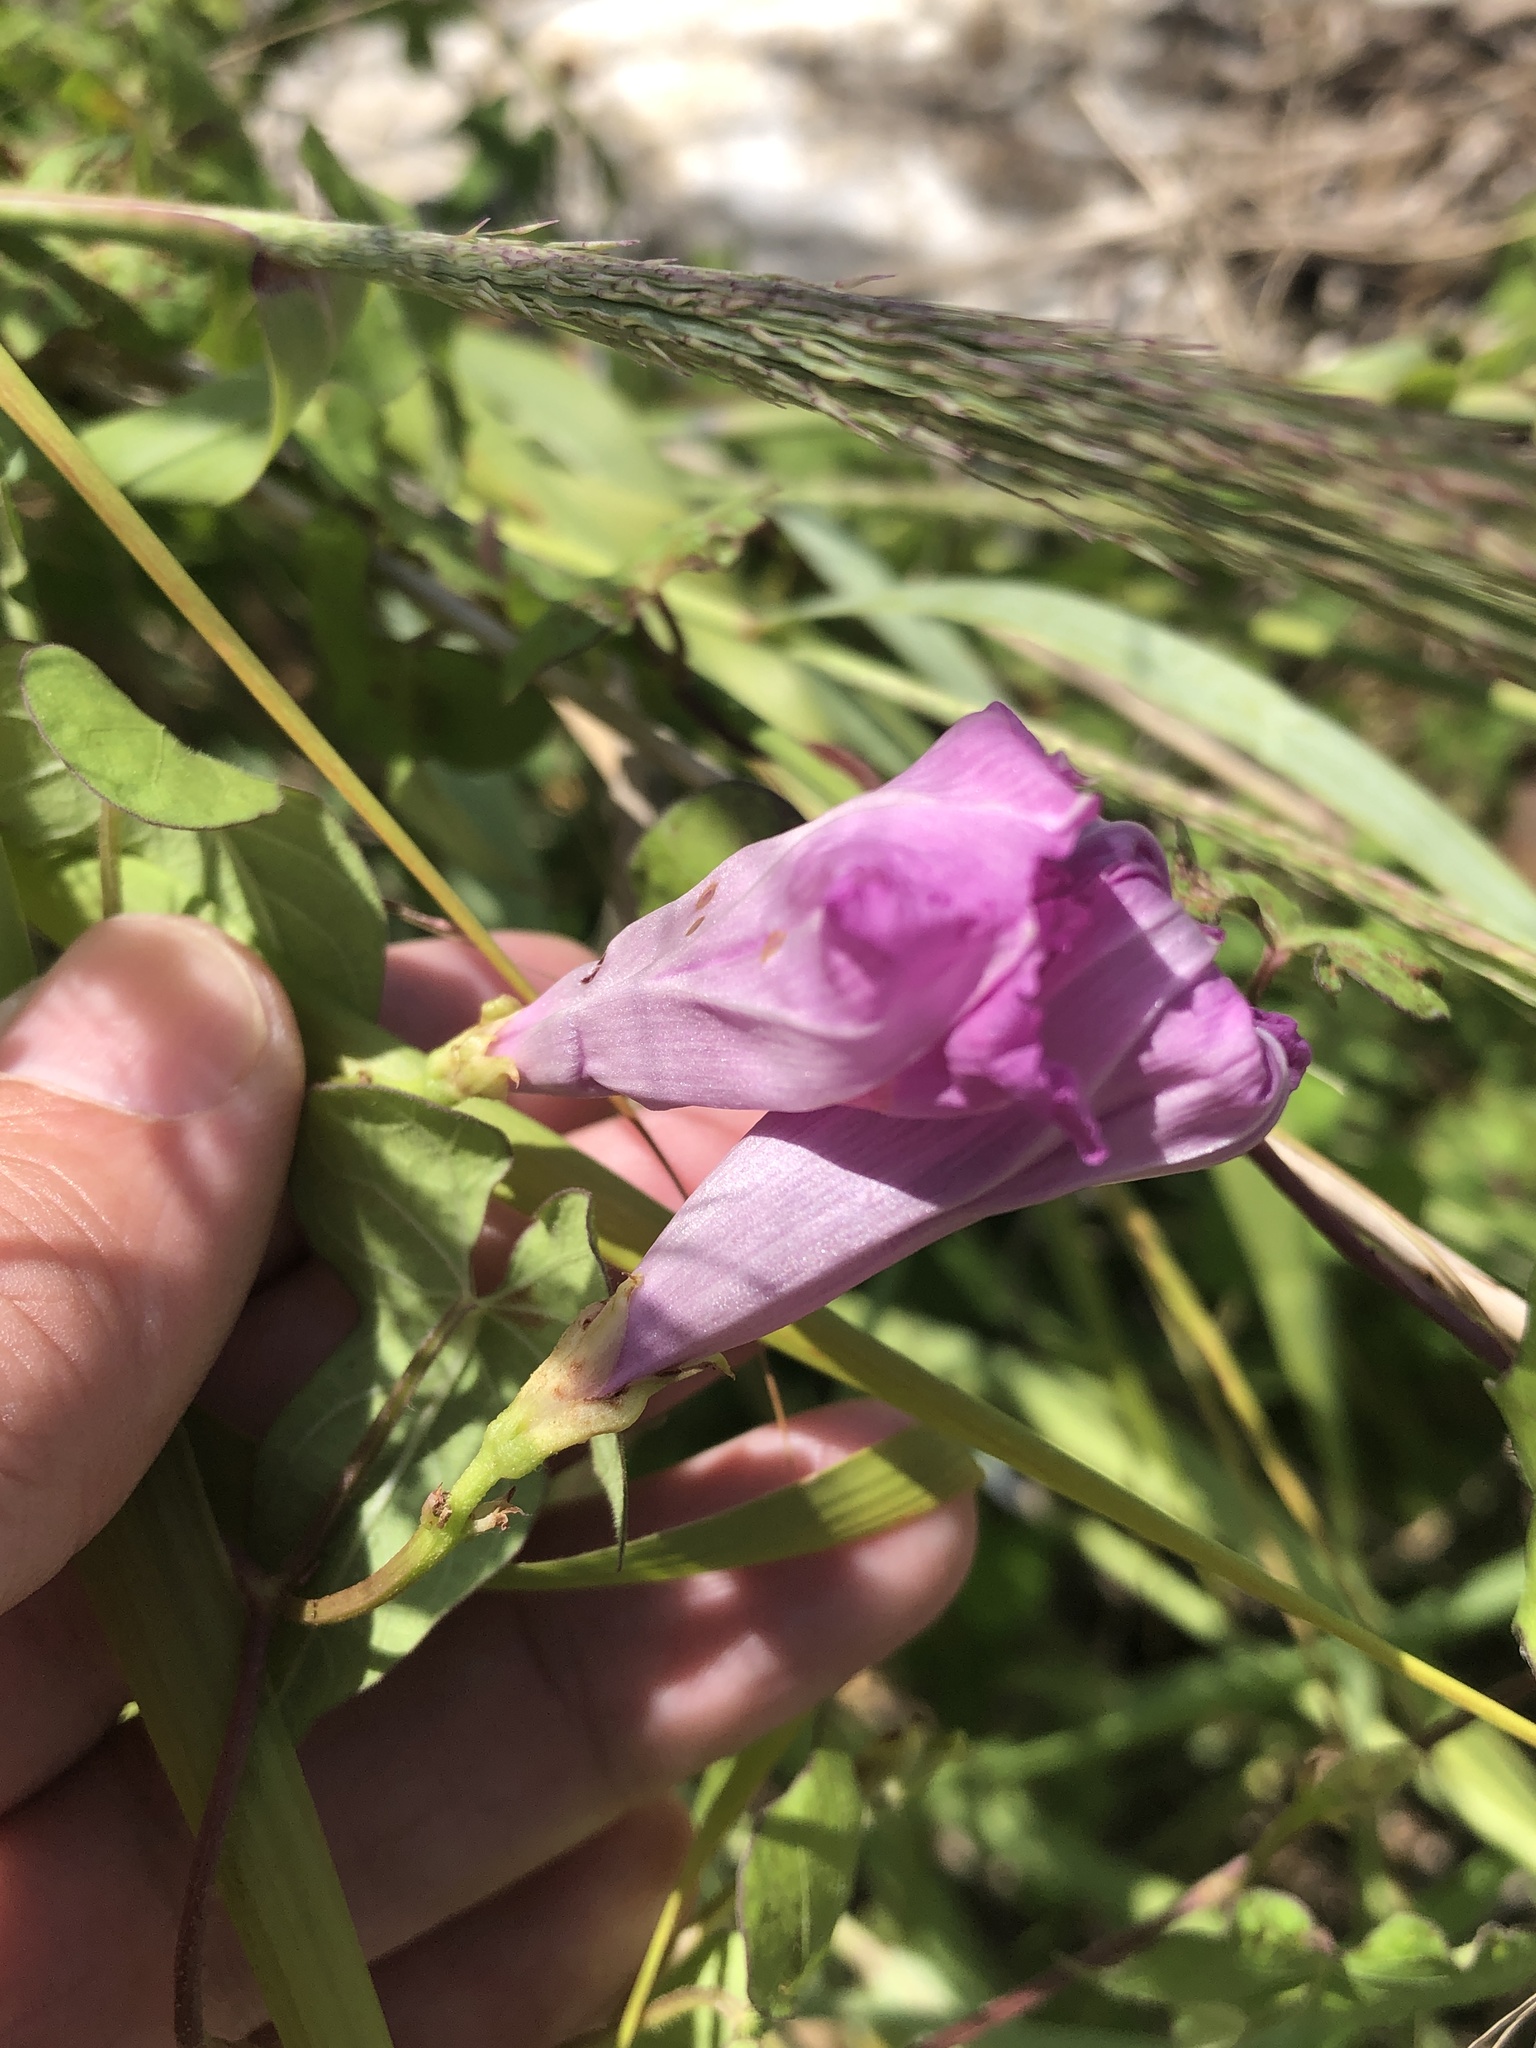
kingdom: Plantae
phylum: Tracheophyta
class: Magnoliopsida
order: Solanales
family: Convolvulaceae
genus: Ipomoea
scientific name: Ipomoea cordatotriloba
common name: Cotton morning glory
